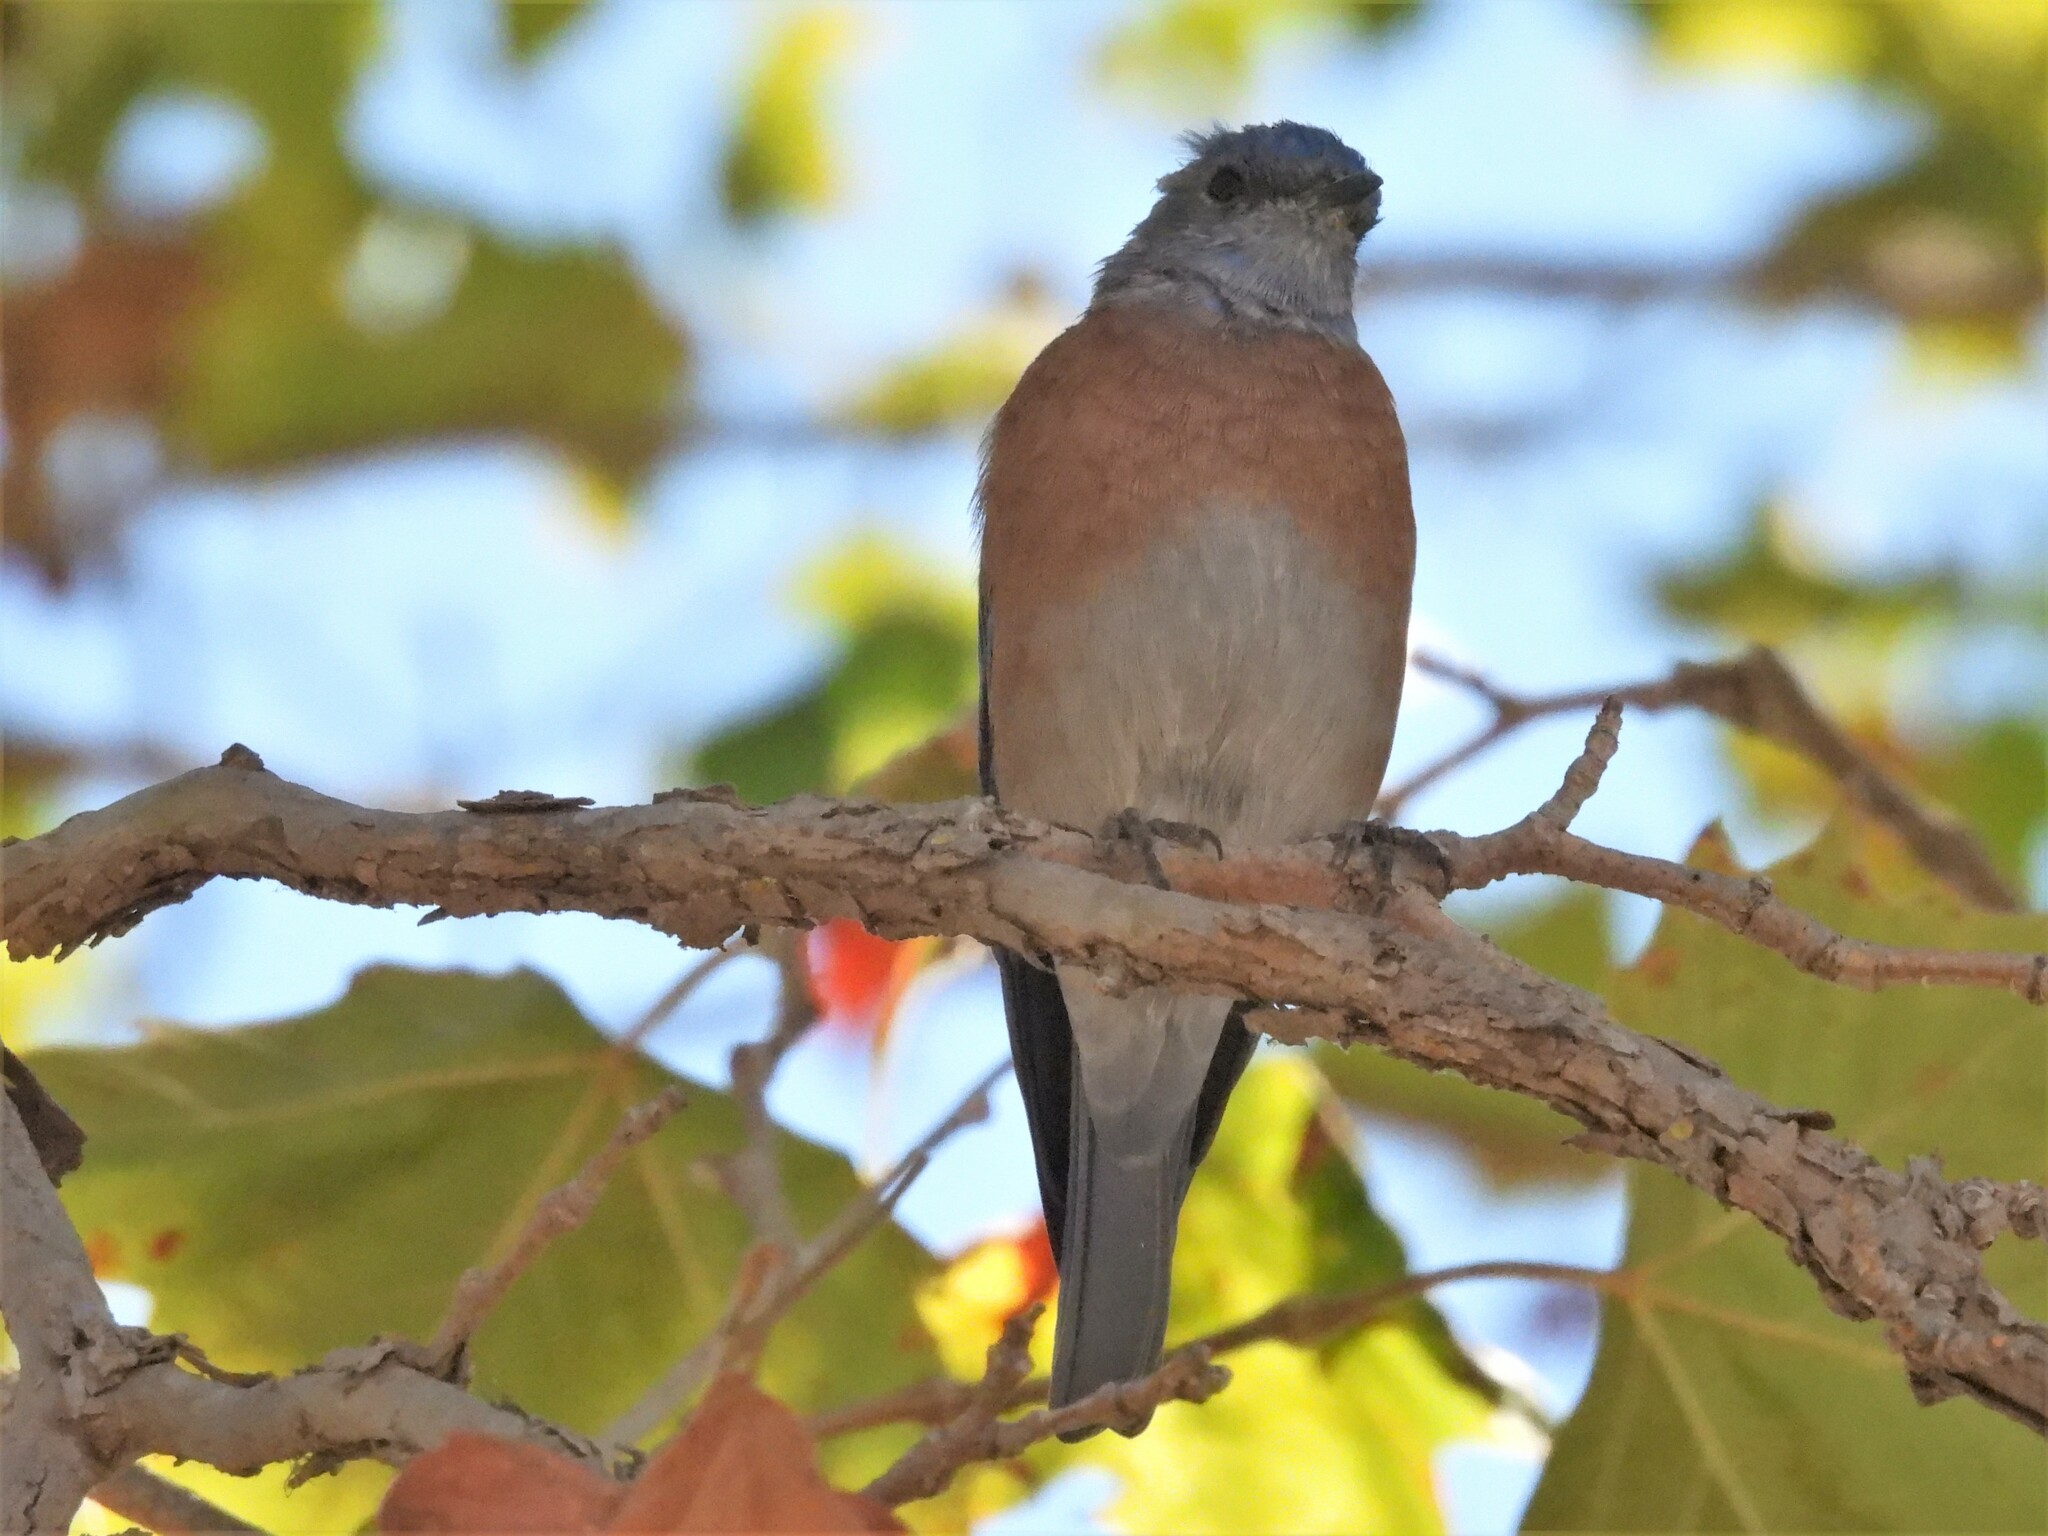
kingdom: Animalia
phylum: Chordata
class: Aves
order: Passeriformes
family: Turdidae
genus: Sialia
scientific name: Sialia mexicana
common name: Western bluebird
